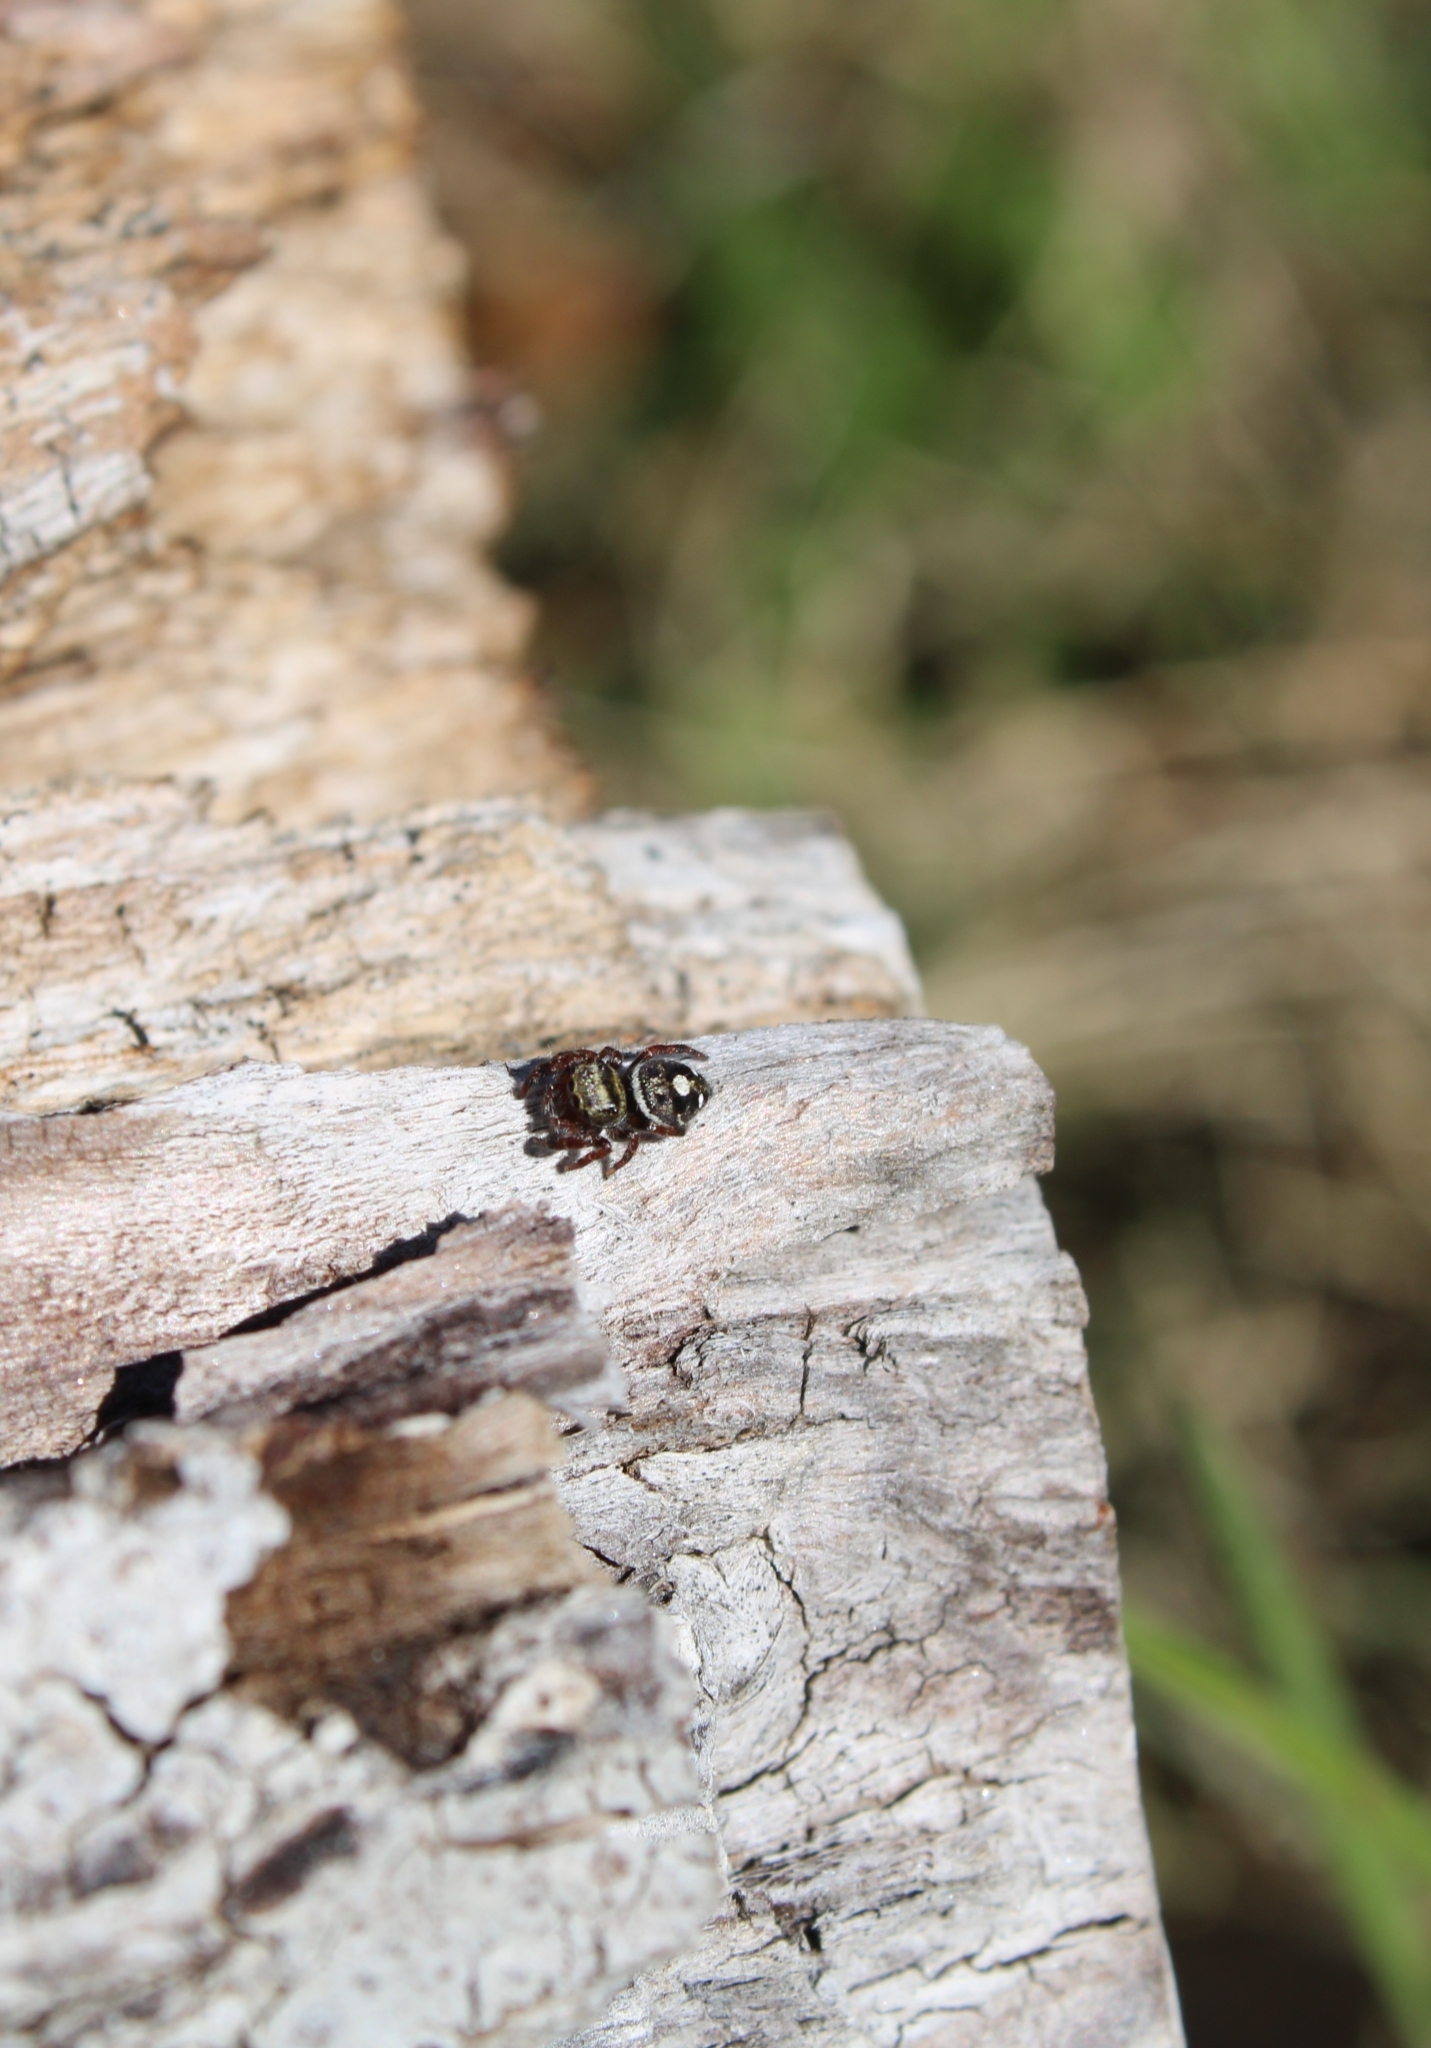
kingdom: Animalia
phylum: Arthropoda
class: Arachnida
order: Araneae
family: Salticidae
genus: Phidippus
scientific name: Phidippus audax
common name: Bold jumper
